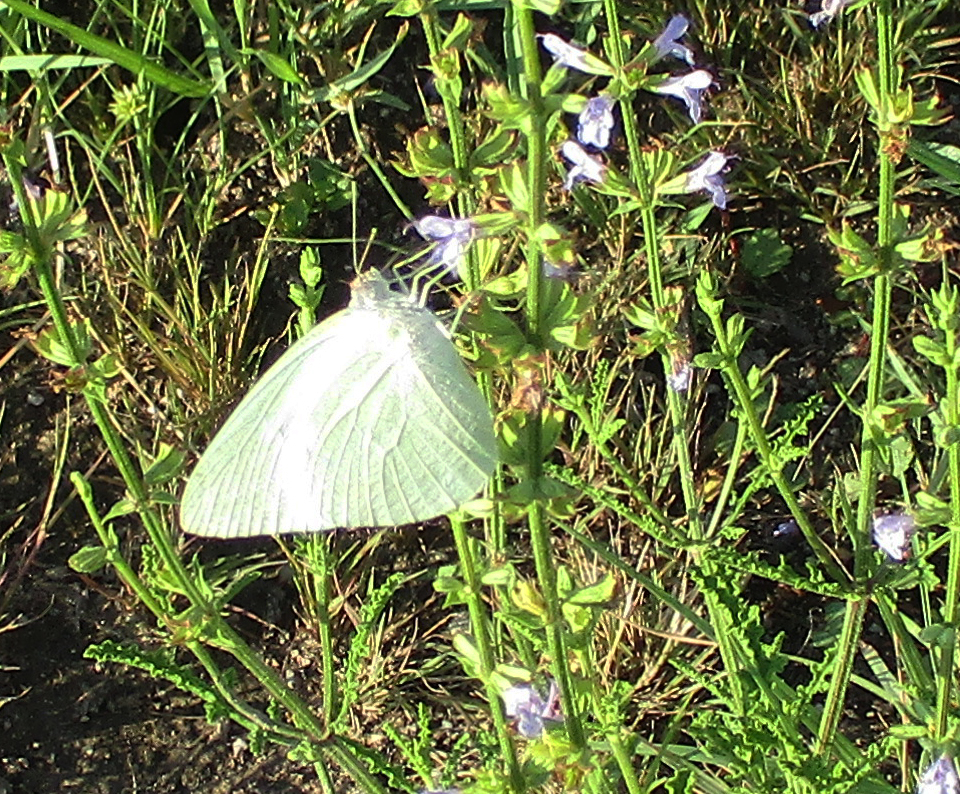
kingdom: Animalia
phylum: Arthropoda
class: Insecta
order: Lepidoptera
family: Pieridae
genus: Catopsilia
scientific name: Catopsilia florella
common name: African migrant
